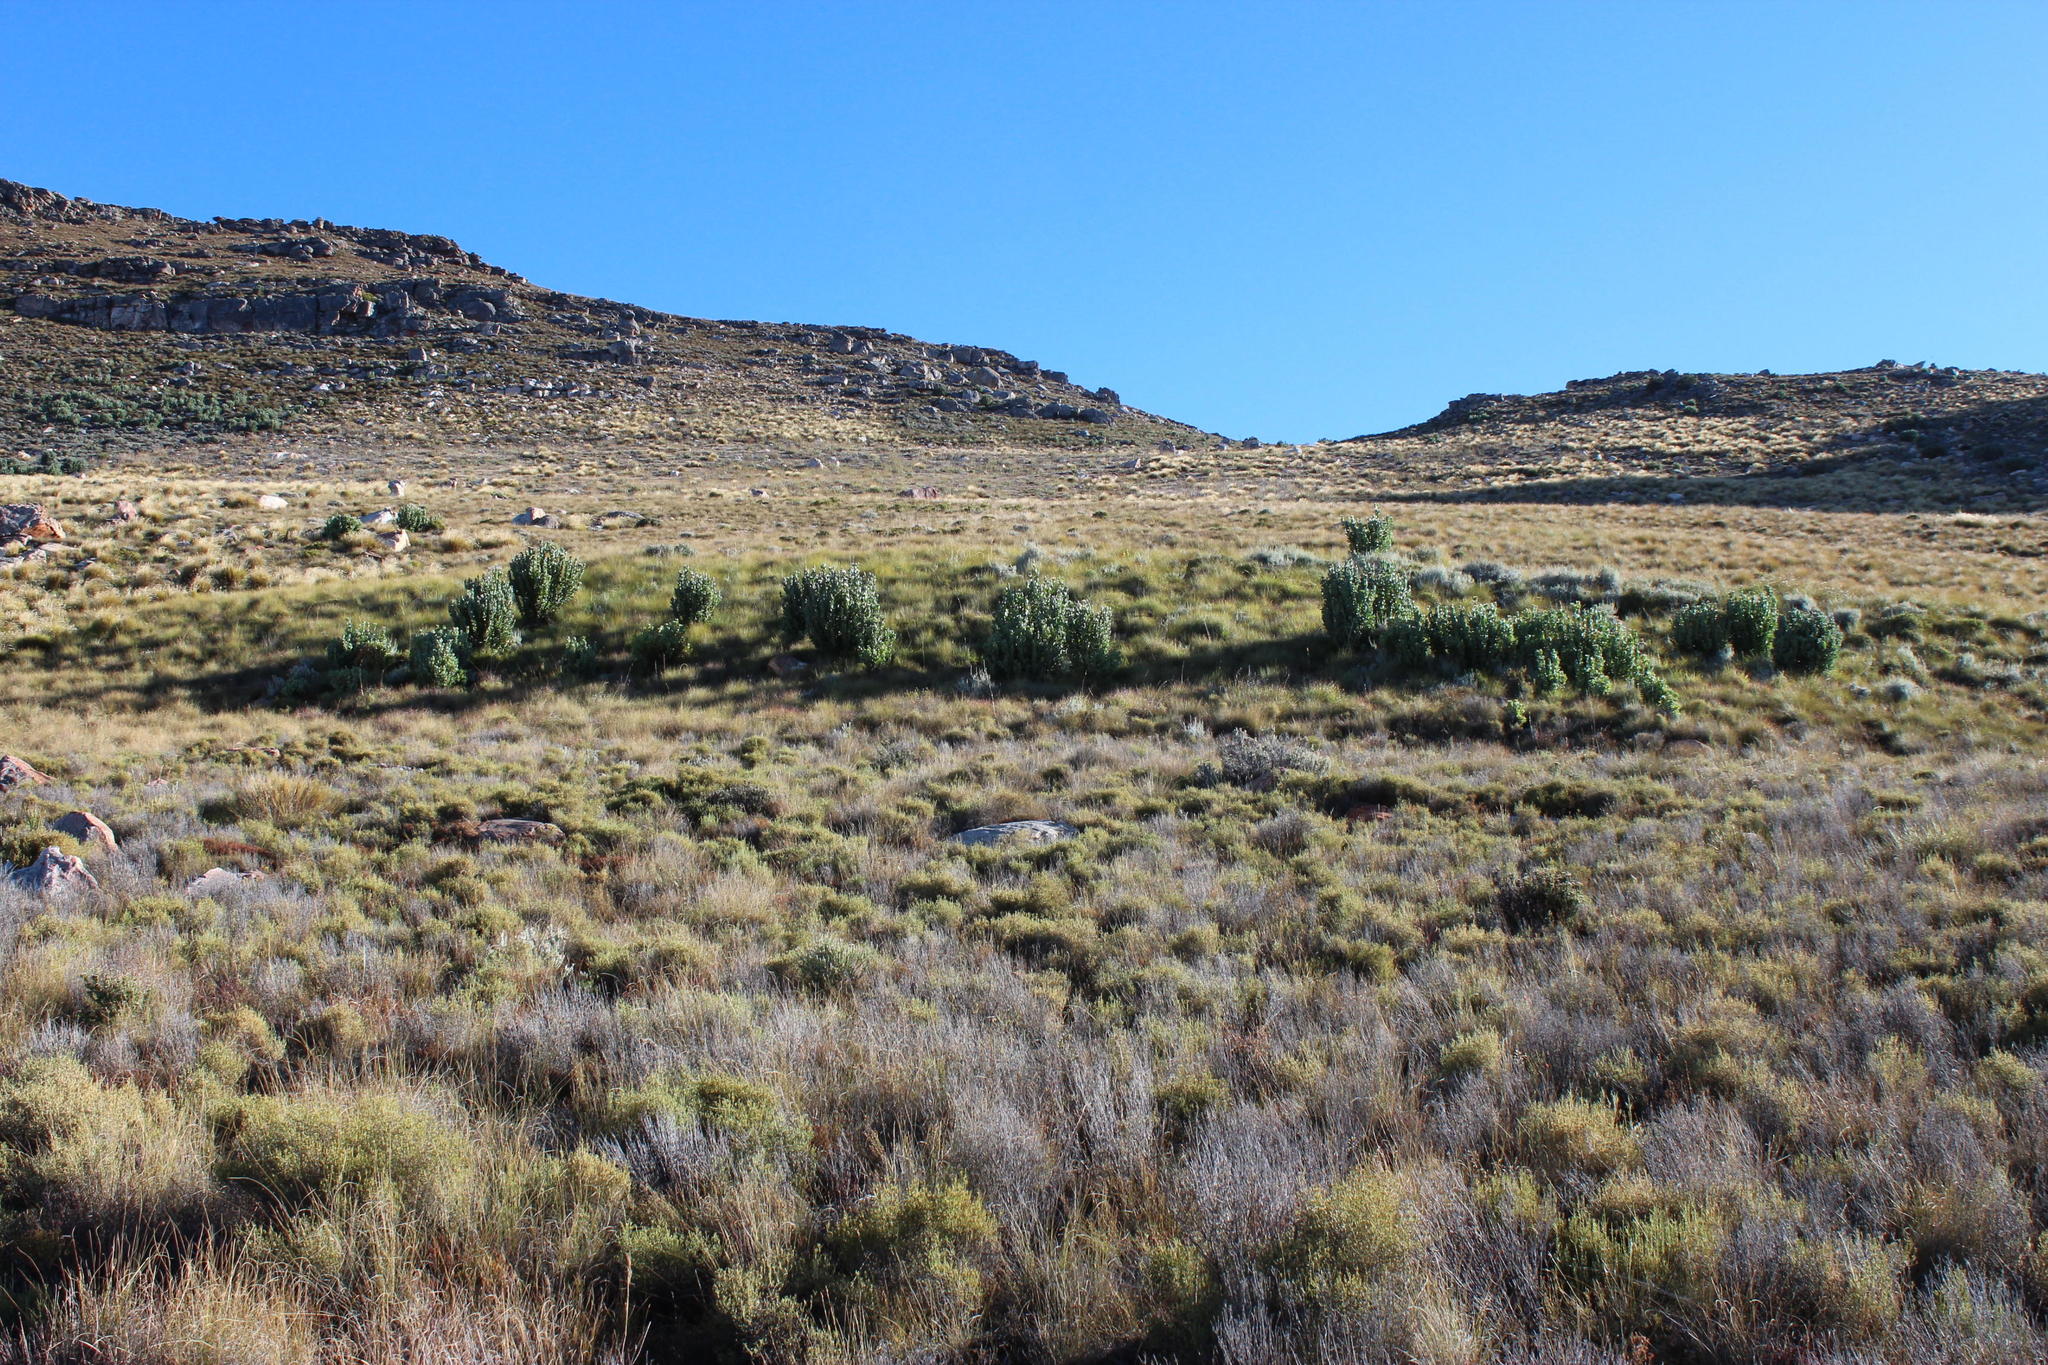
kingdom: Plantae
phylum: Tracheophyta
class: Magnoliopsida
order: Proteales
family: Proteaceae
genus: Protea
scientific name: Protea punctata
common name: Water sugarbush
